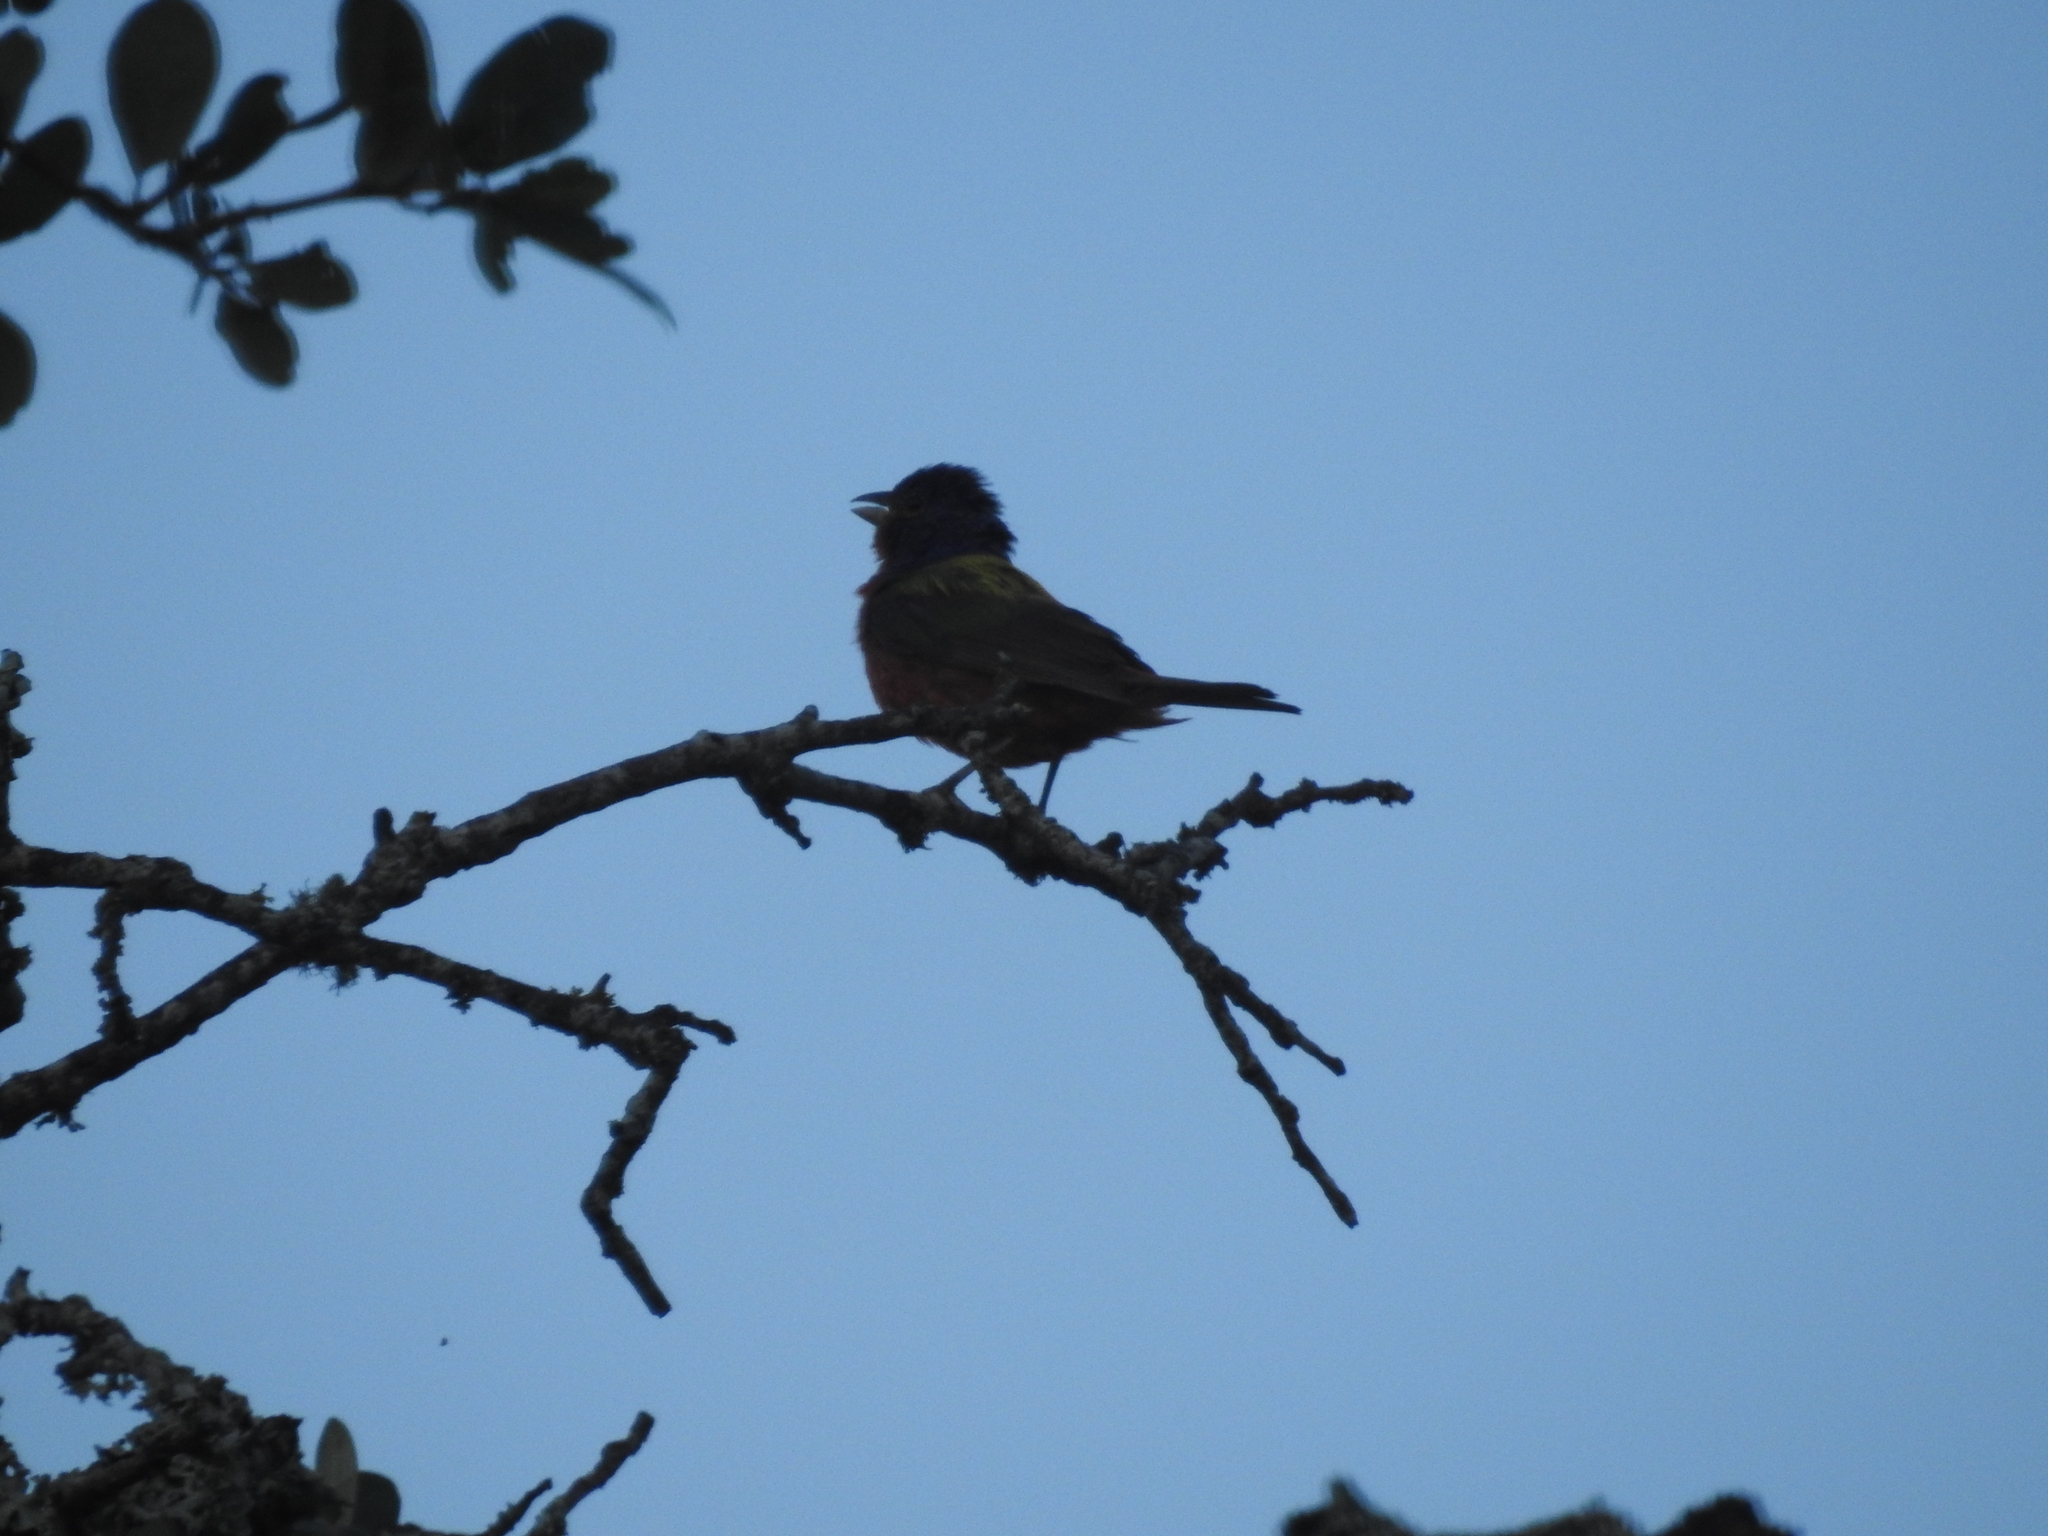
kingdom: Animalia
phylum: Chordata
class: Aves
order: Passeriformes
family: Cardinalidae
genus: Passerina
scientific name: Passerina ciris
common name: Painted bunting
